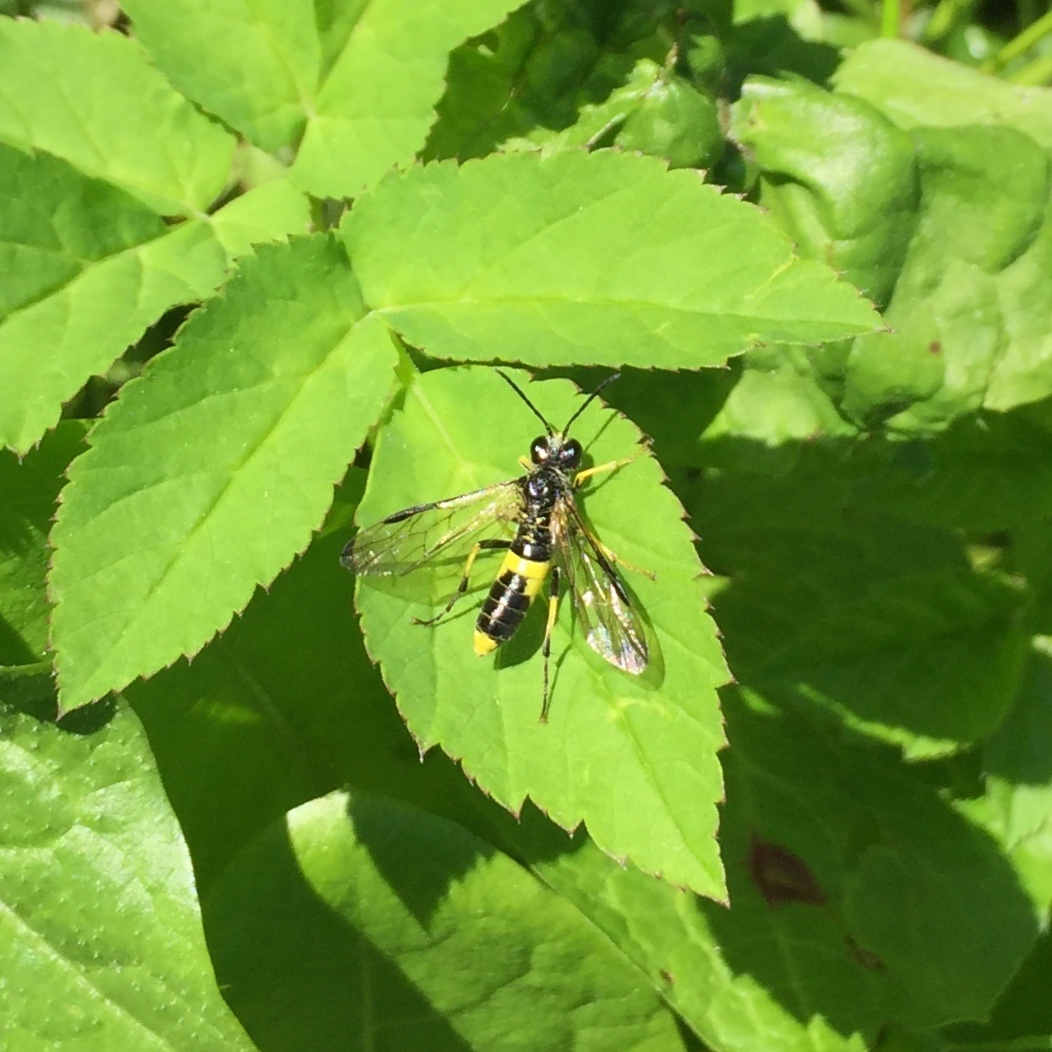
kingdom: Animalia
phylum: Arthropoda
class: Insecta
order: Hymenoptera
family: Tenthredinidae
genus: Tenthredo
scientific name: Tenthredo temula
